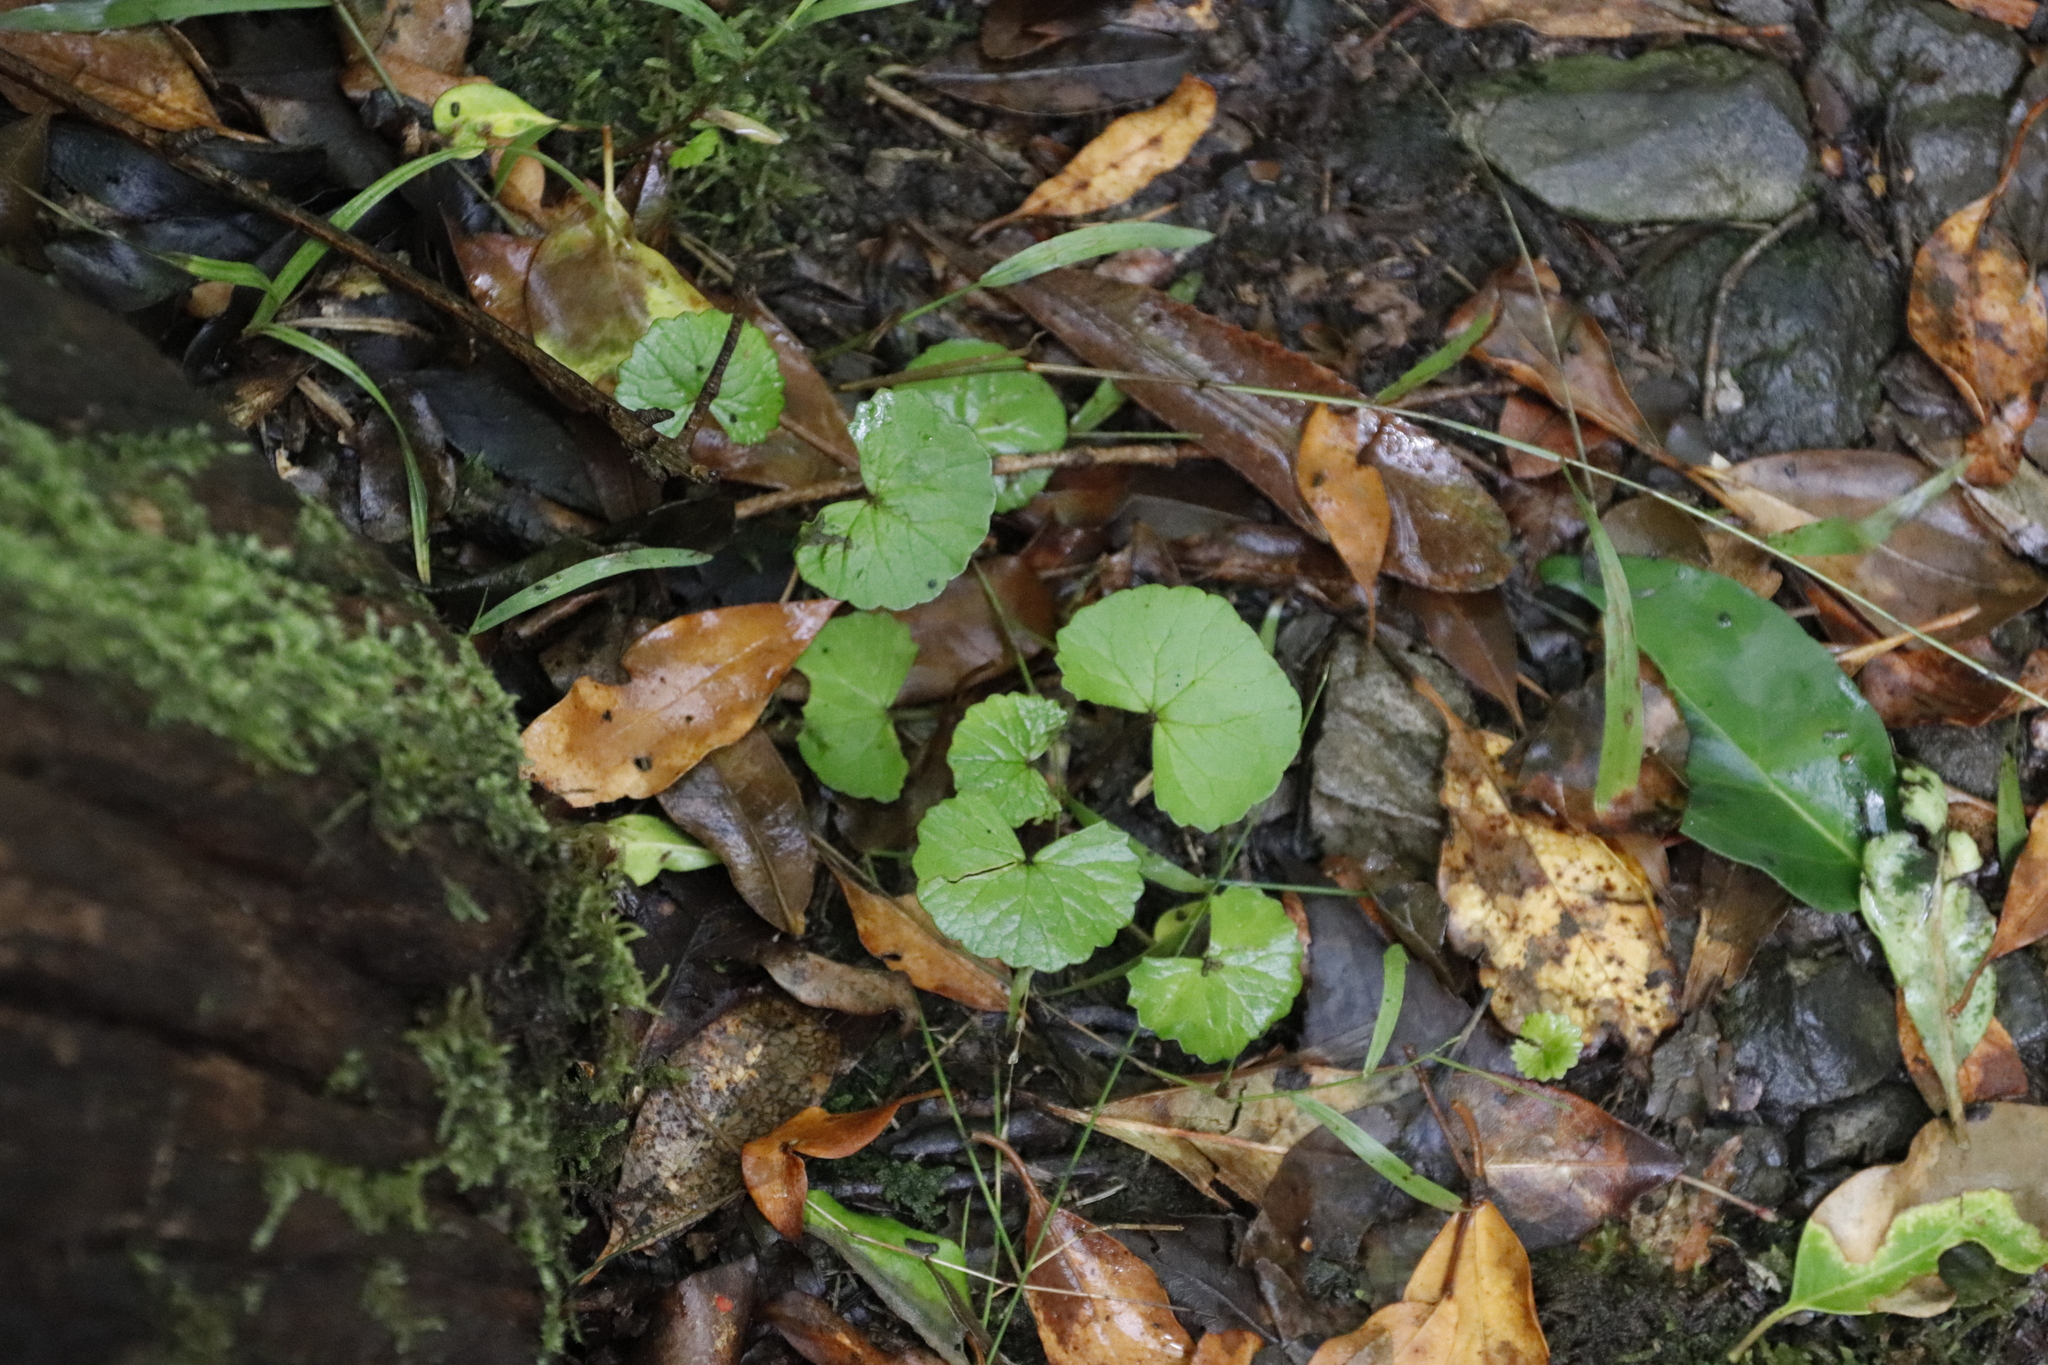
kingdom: Plantae
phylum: Tracheophyta
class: Magnoliopsida
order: Apiales
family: Apiaceae
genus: Centella
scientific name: Centella asiatica
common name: Spadeleaf
